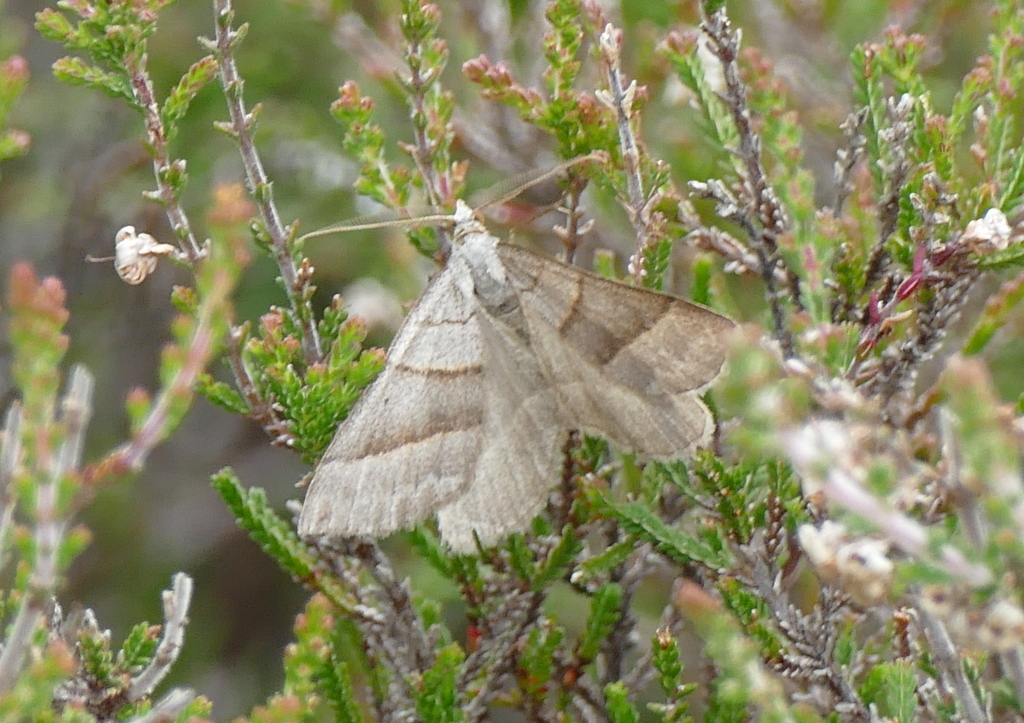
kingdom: Animalia
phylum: Arthropoda
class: Insecta
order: Lepidoptera
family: Geometridae
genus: Scotopteryx
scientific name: Scotopteryx luridata
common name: July belle
